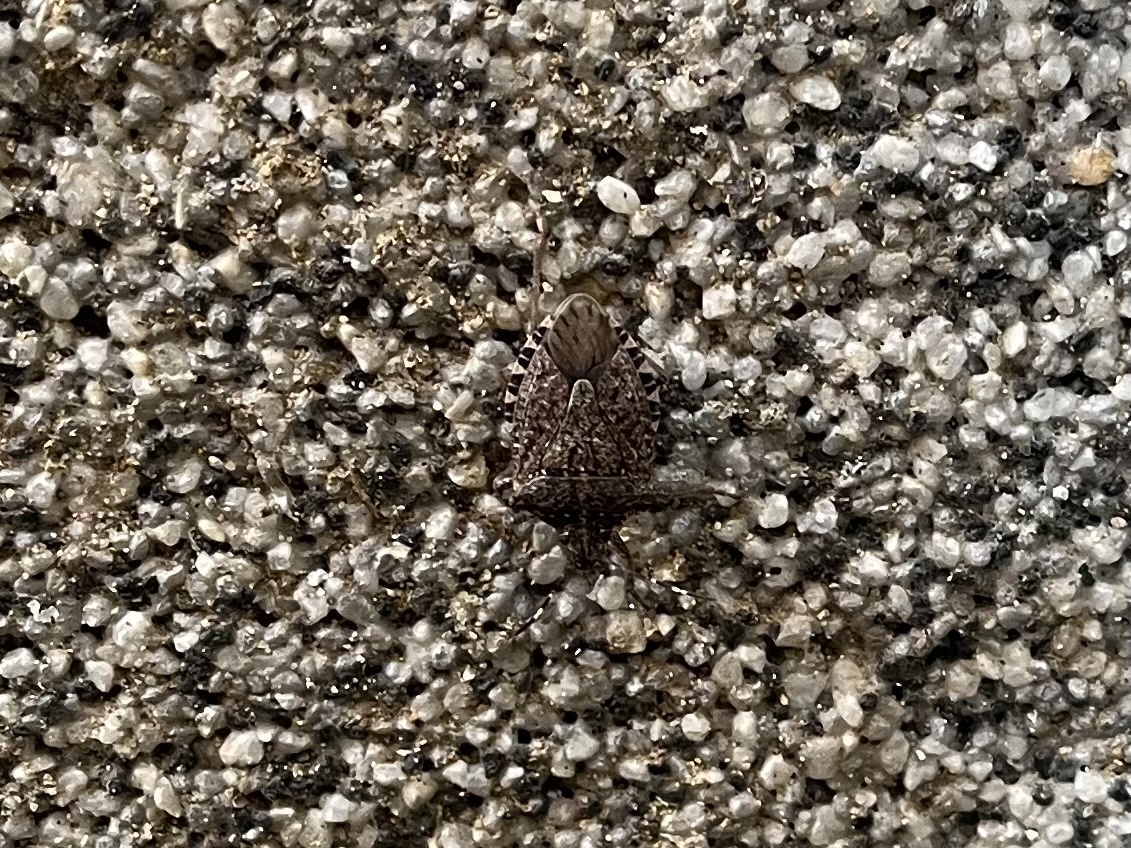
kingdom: Animalia
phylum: Arthropoda
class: Insecta
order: Hemiptera
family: Pentatomidae
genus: Halyomorpha
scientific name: Halyomorpha halys
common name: Brown marmorated stink bug
